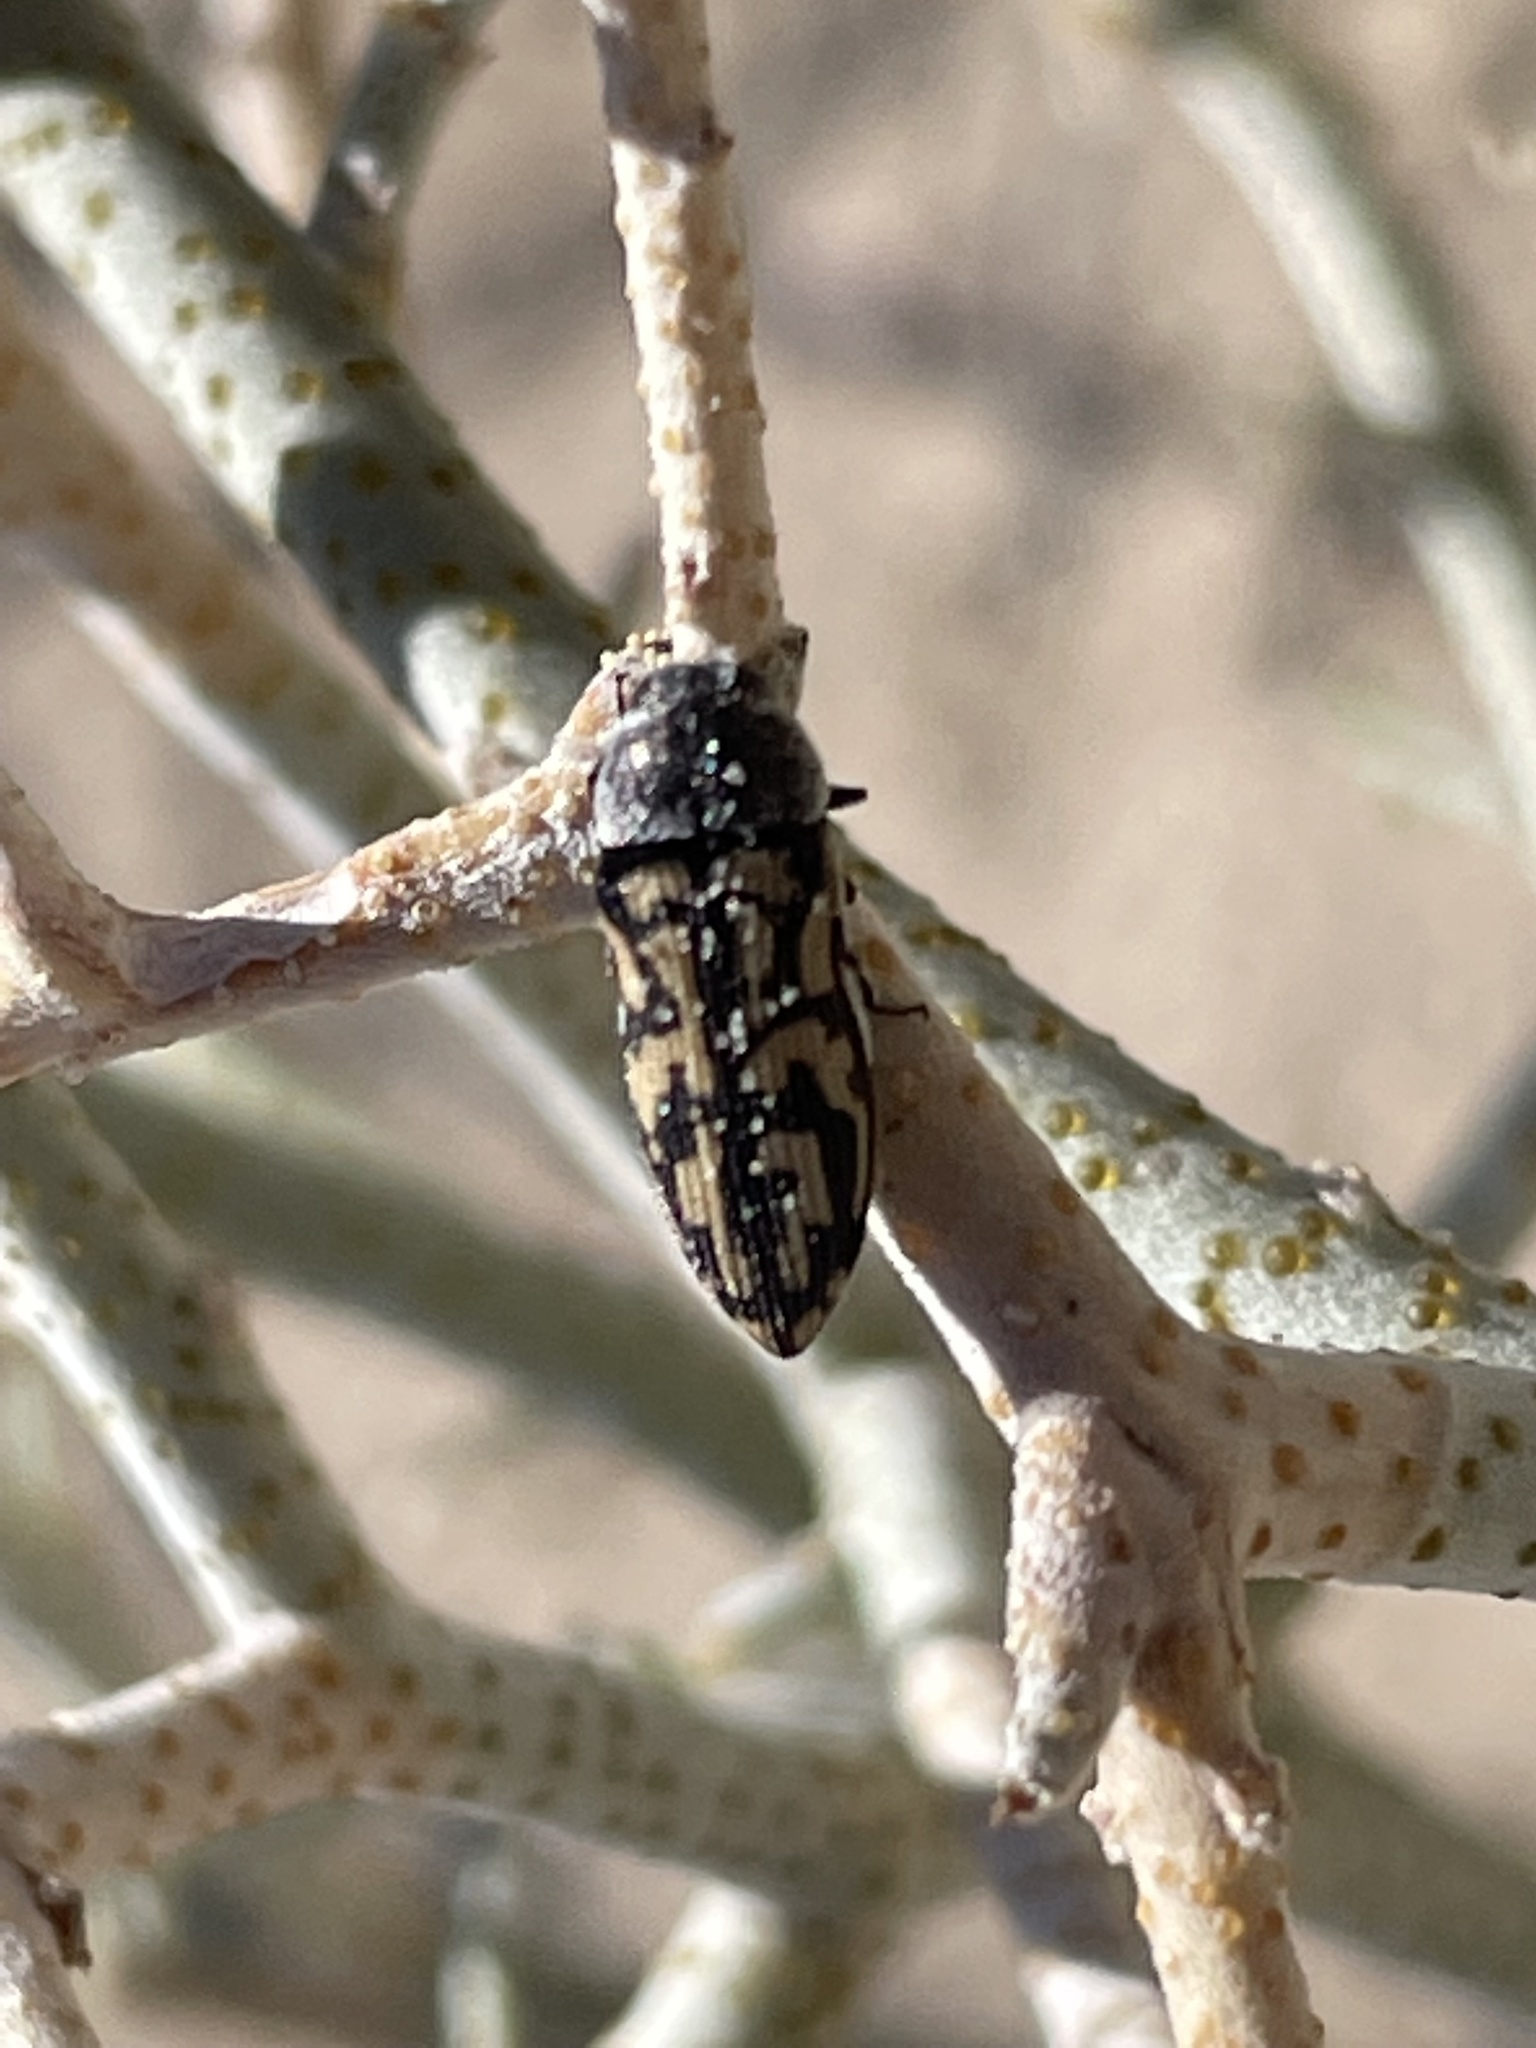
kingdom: Animalia
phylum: Arthropoda
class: Insecta
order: Coleoptera
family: Buprestidae
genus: Acmaeodera
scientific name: Acmaeodera vanduzeei
